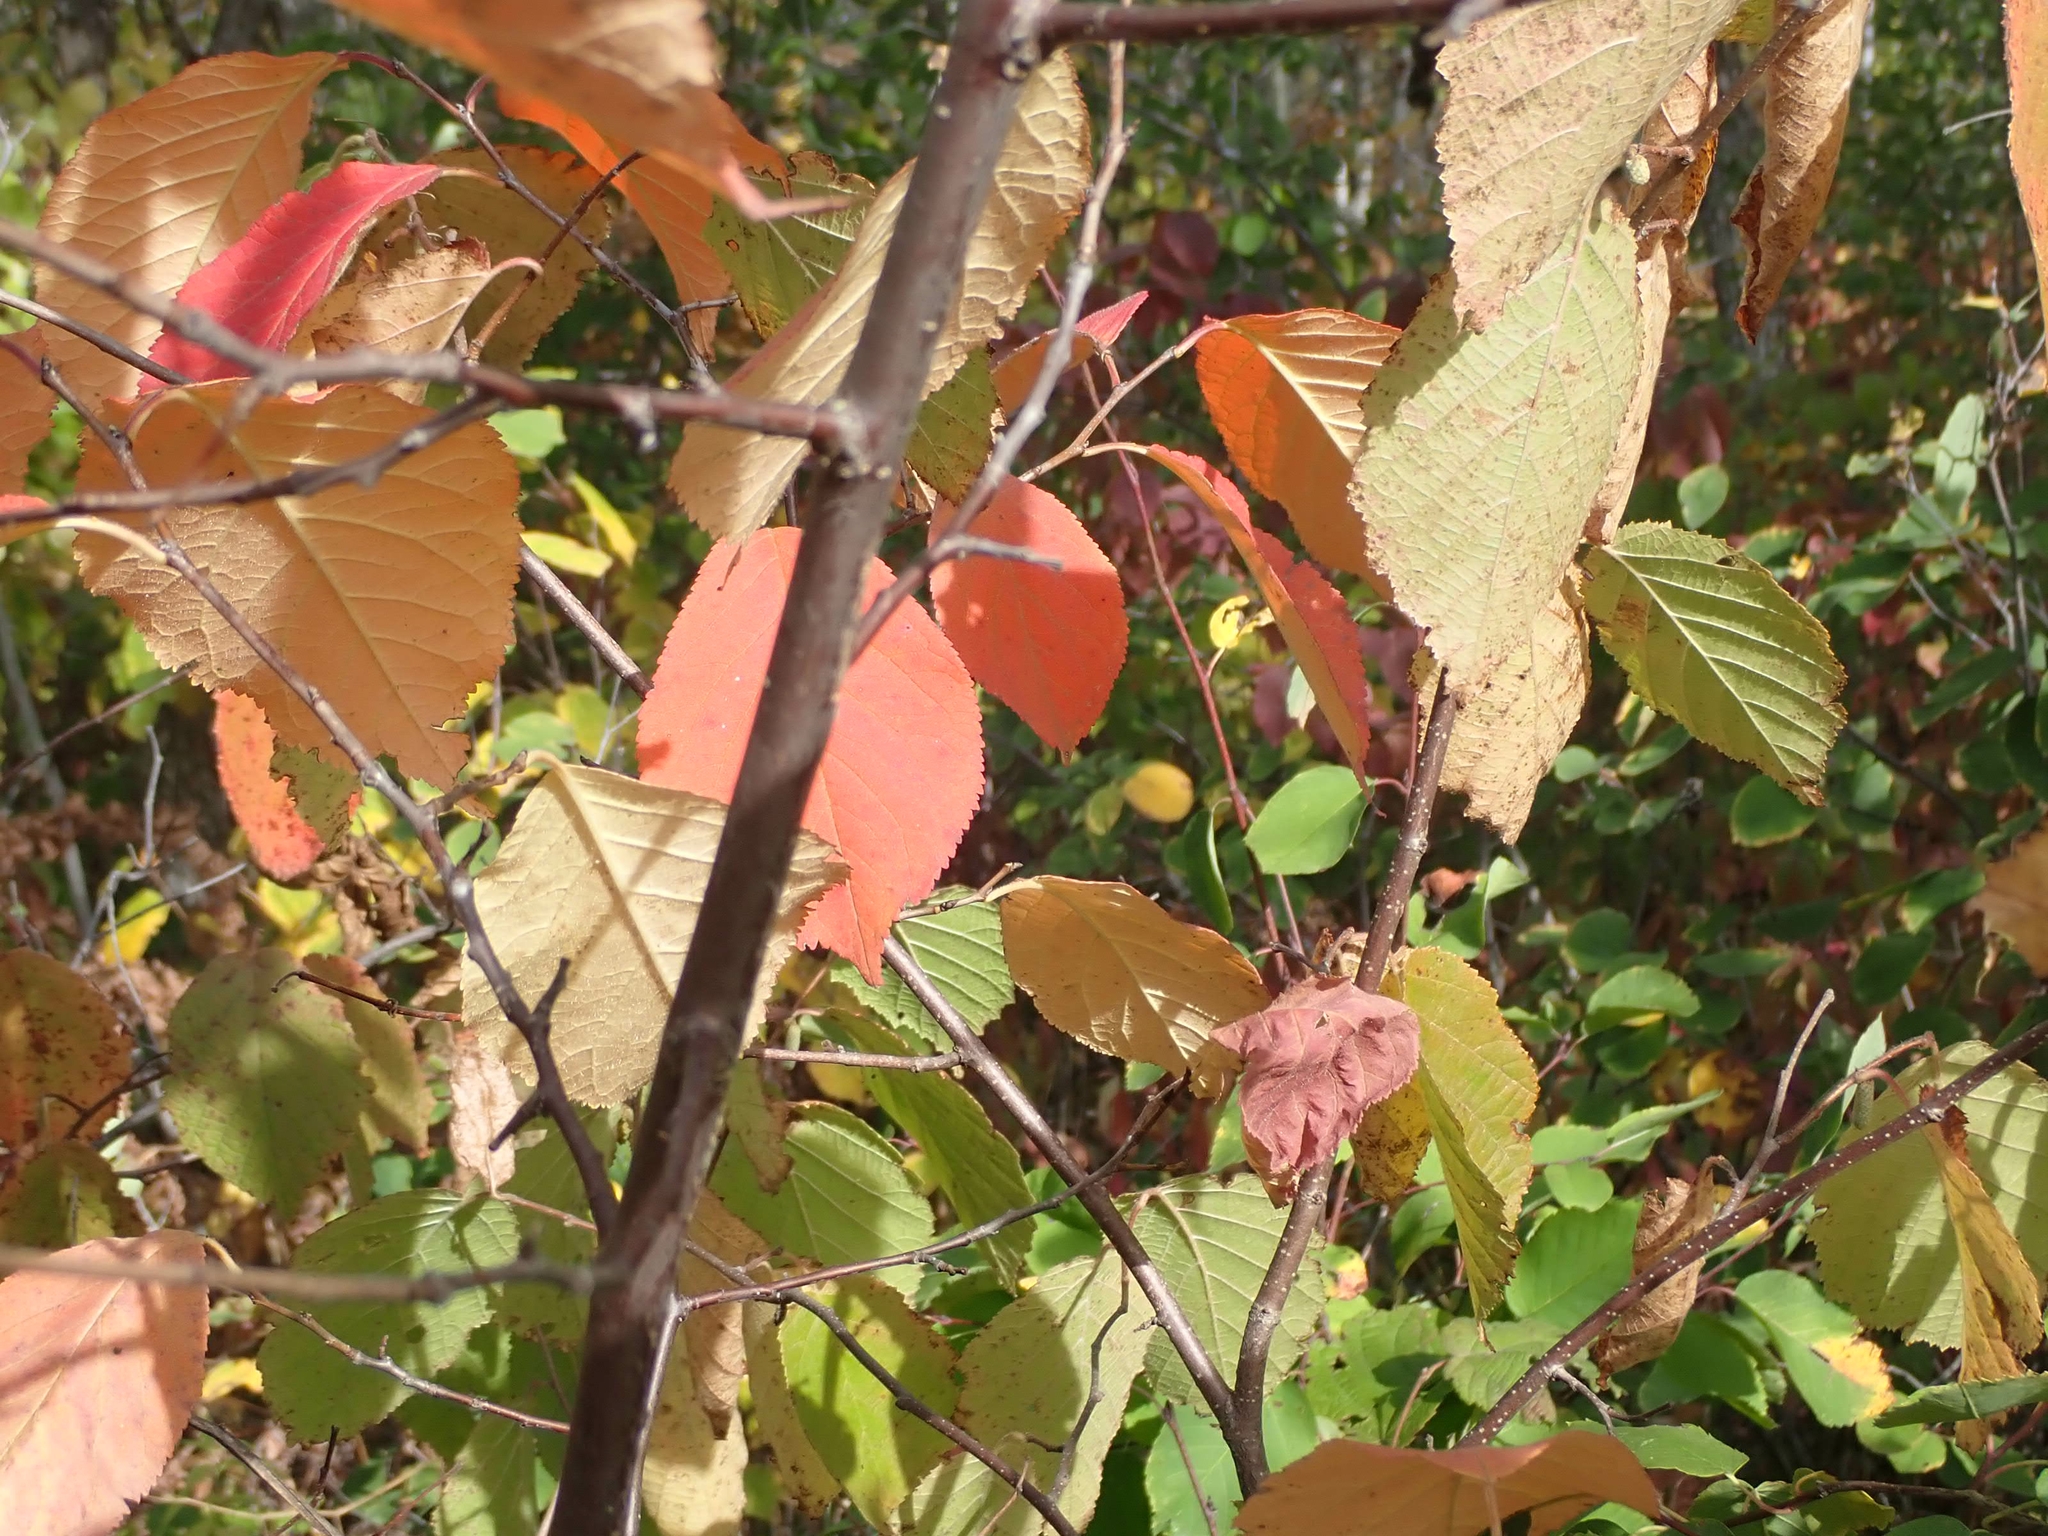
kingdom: Plantae
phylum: Tracheophyta
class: Magnoliopsida
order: Rosales
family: Rosaceae
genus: Prunus
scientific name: Prunus nigra
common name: Black plum
